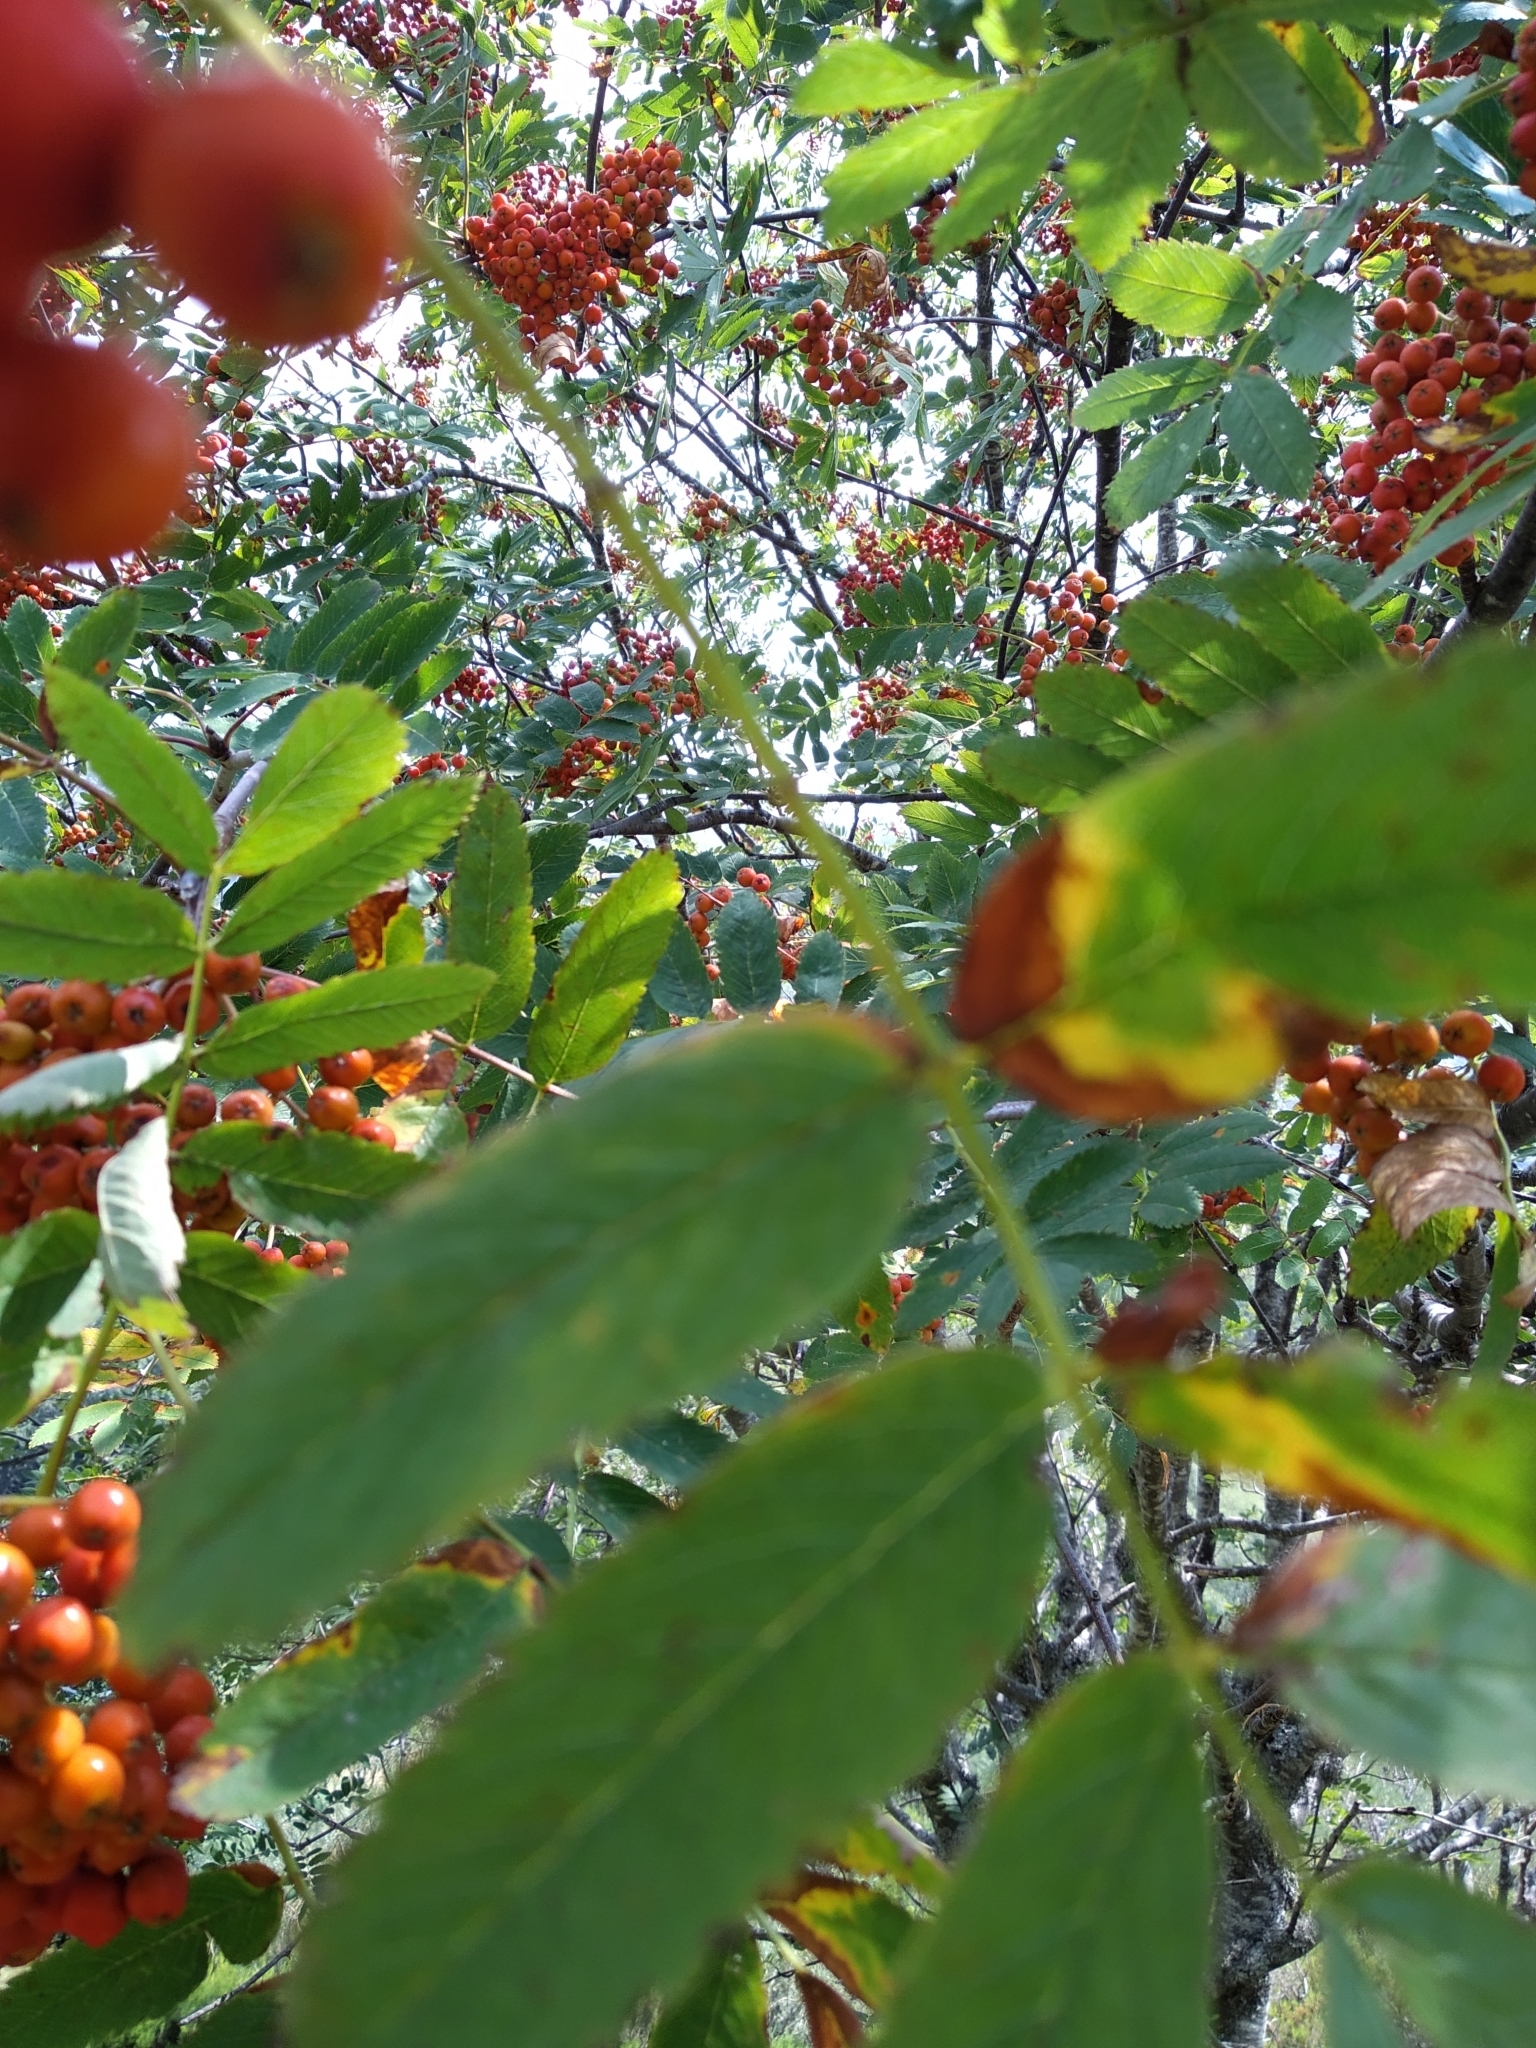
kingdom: Plantae
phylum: Tracheophyta
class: Magnoliopsida
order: Rosales
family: Rosaceae
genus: Sorbus
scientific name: Sorbus aucuparia
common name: Rowan
